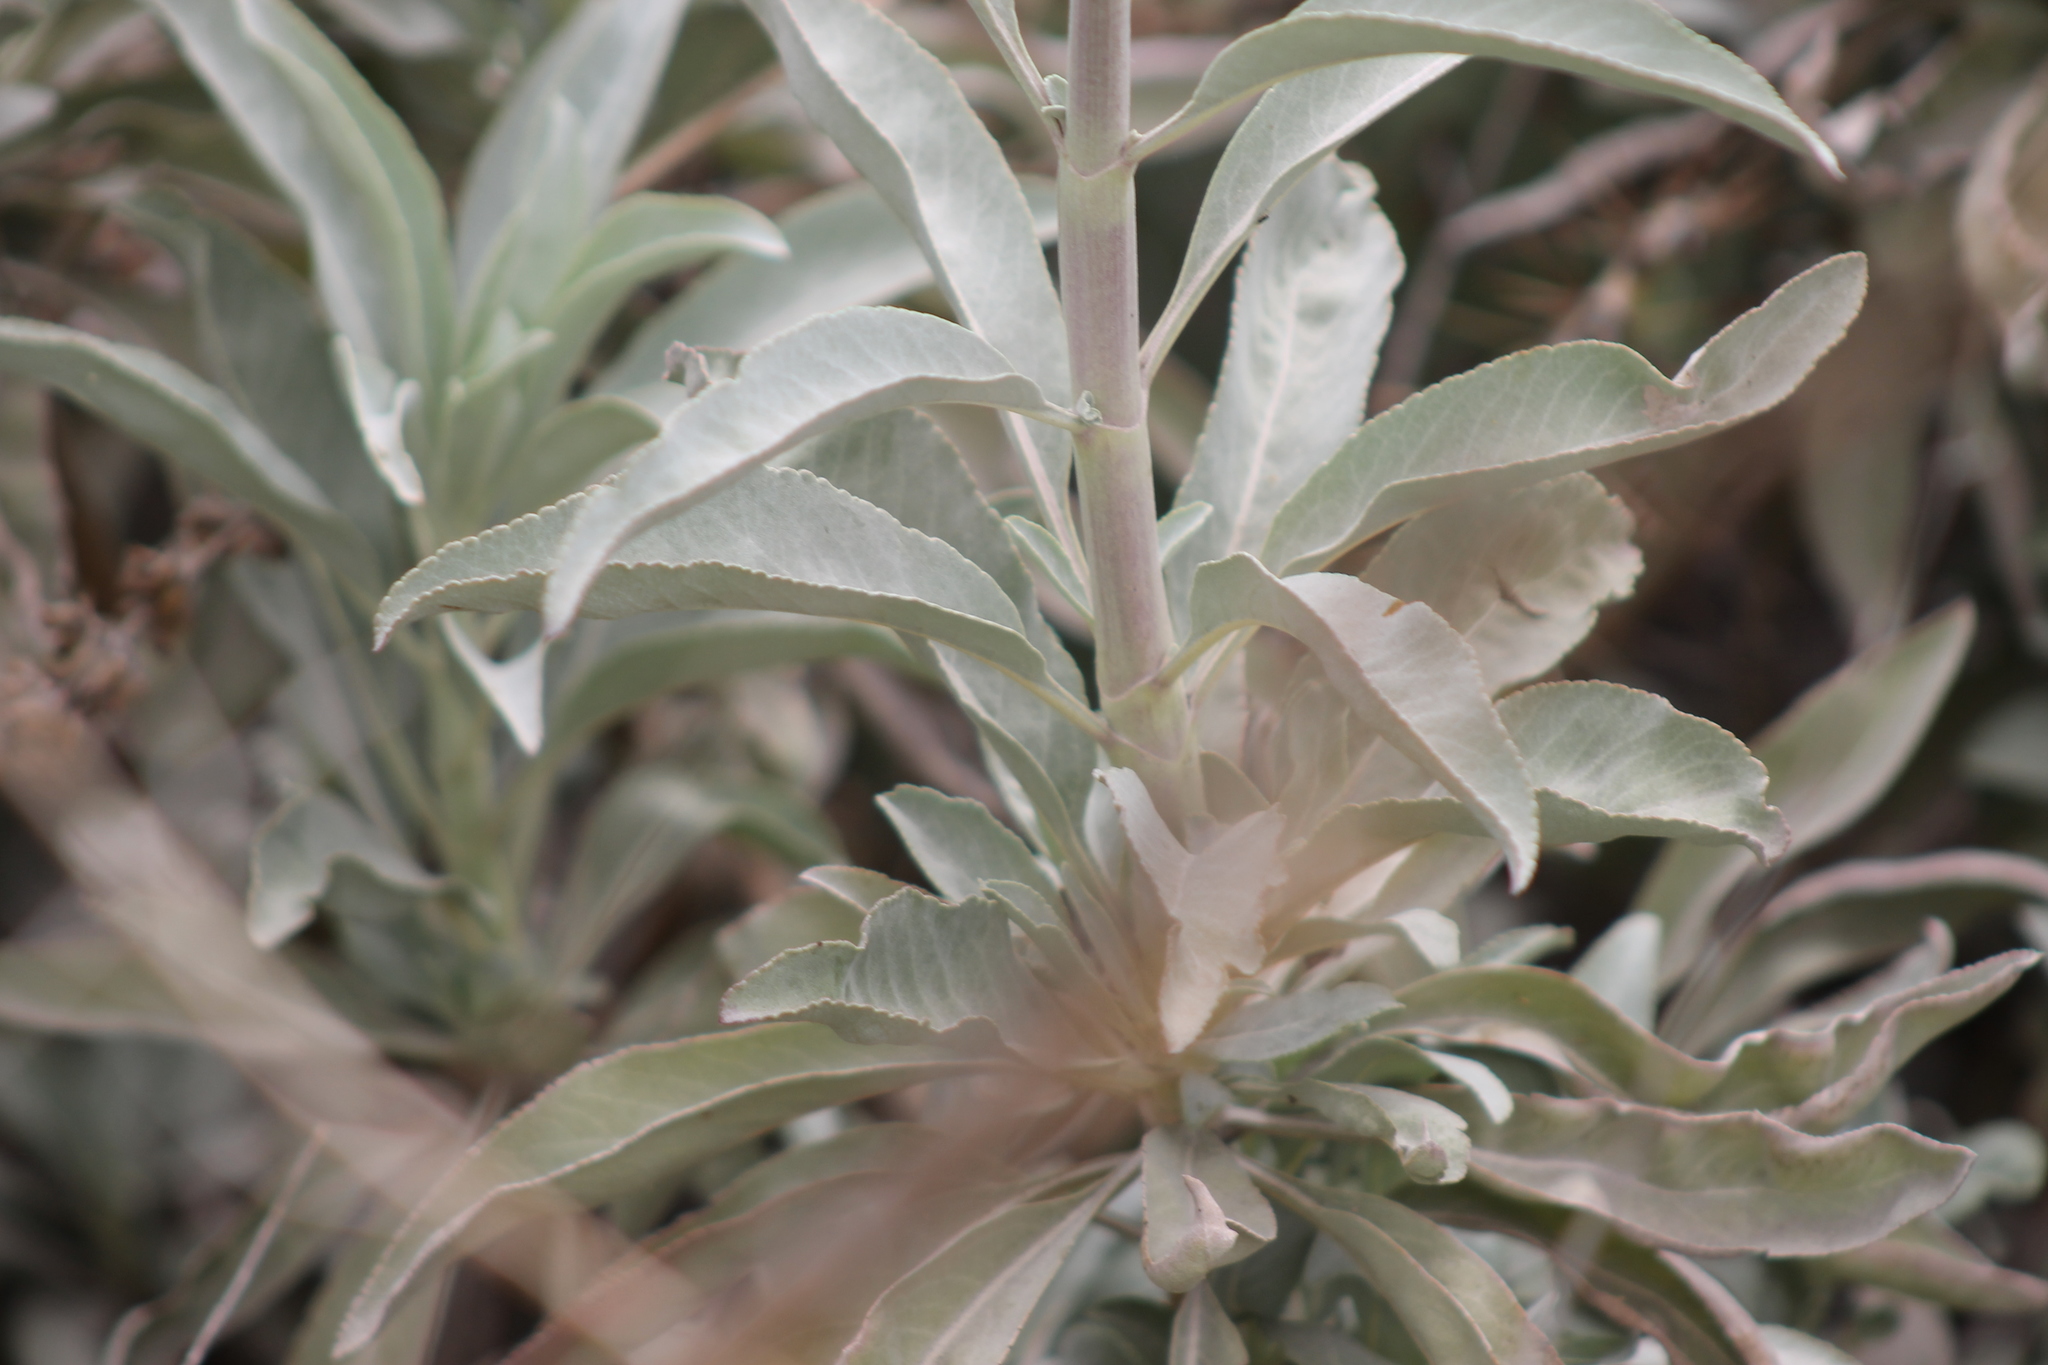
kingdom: Plantae
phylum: Tracheophyta
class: Magnoliopsida
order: Lamiales
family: Lamiaceae
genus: Salvia
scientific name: Salvia apiana
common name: White sage
